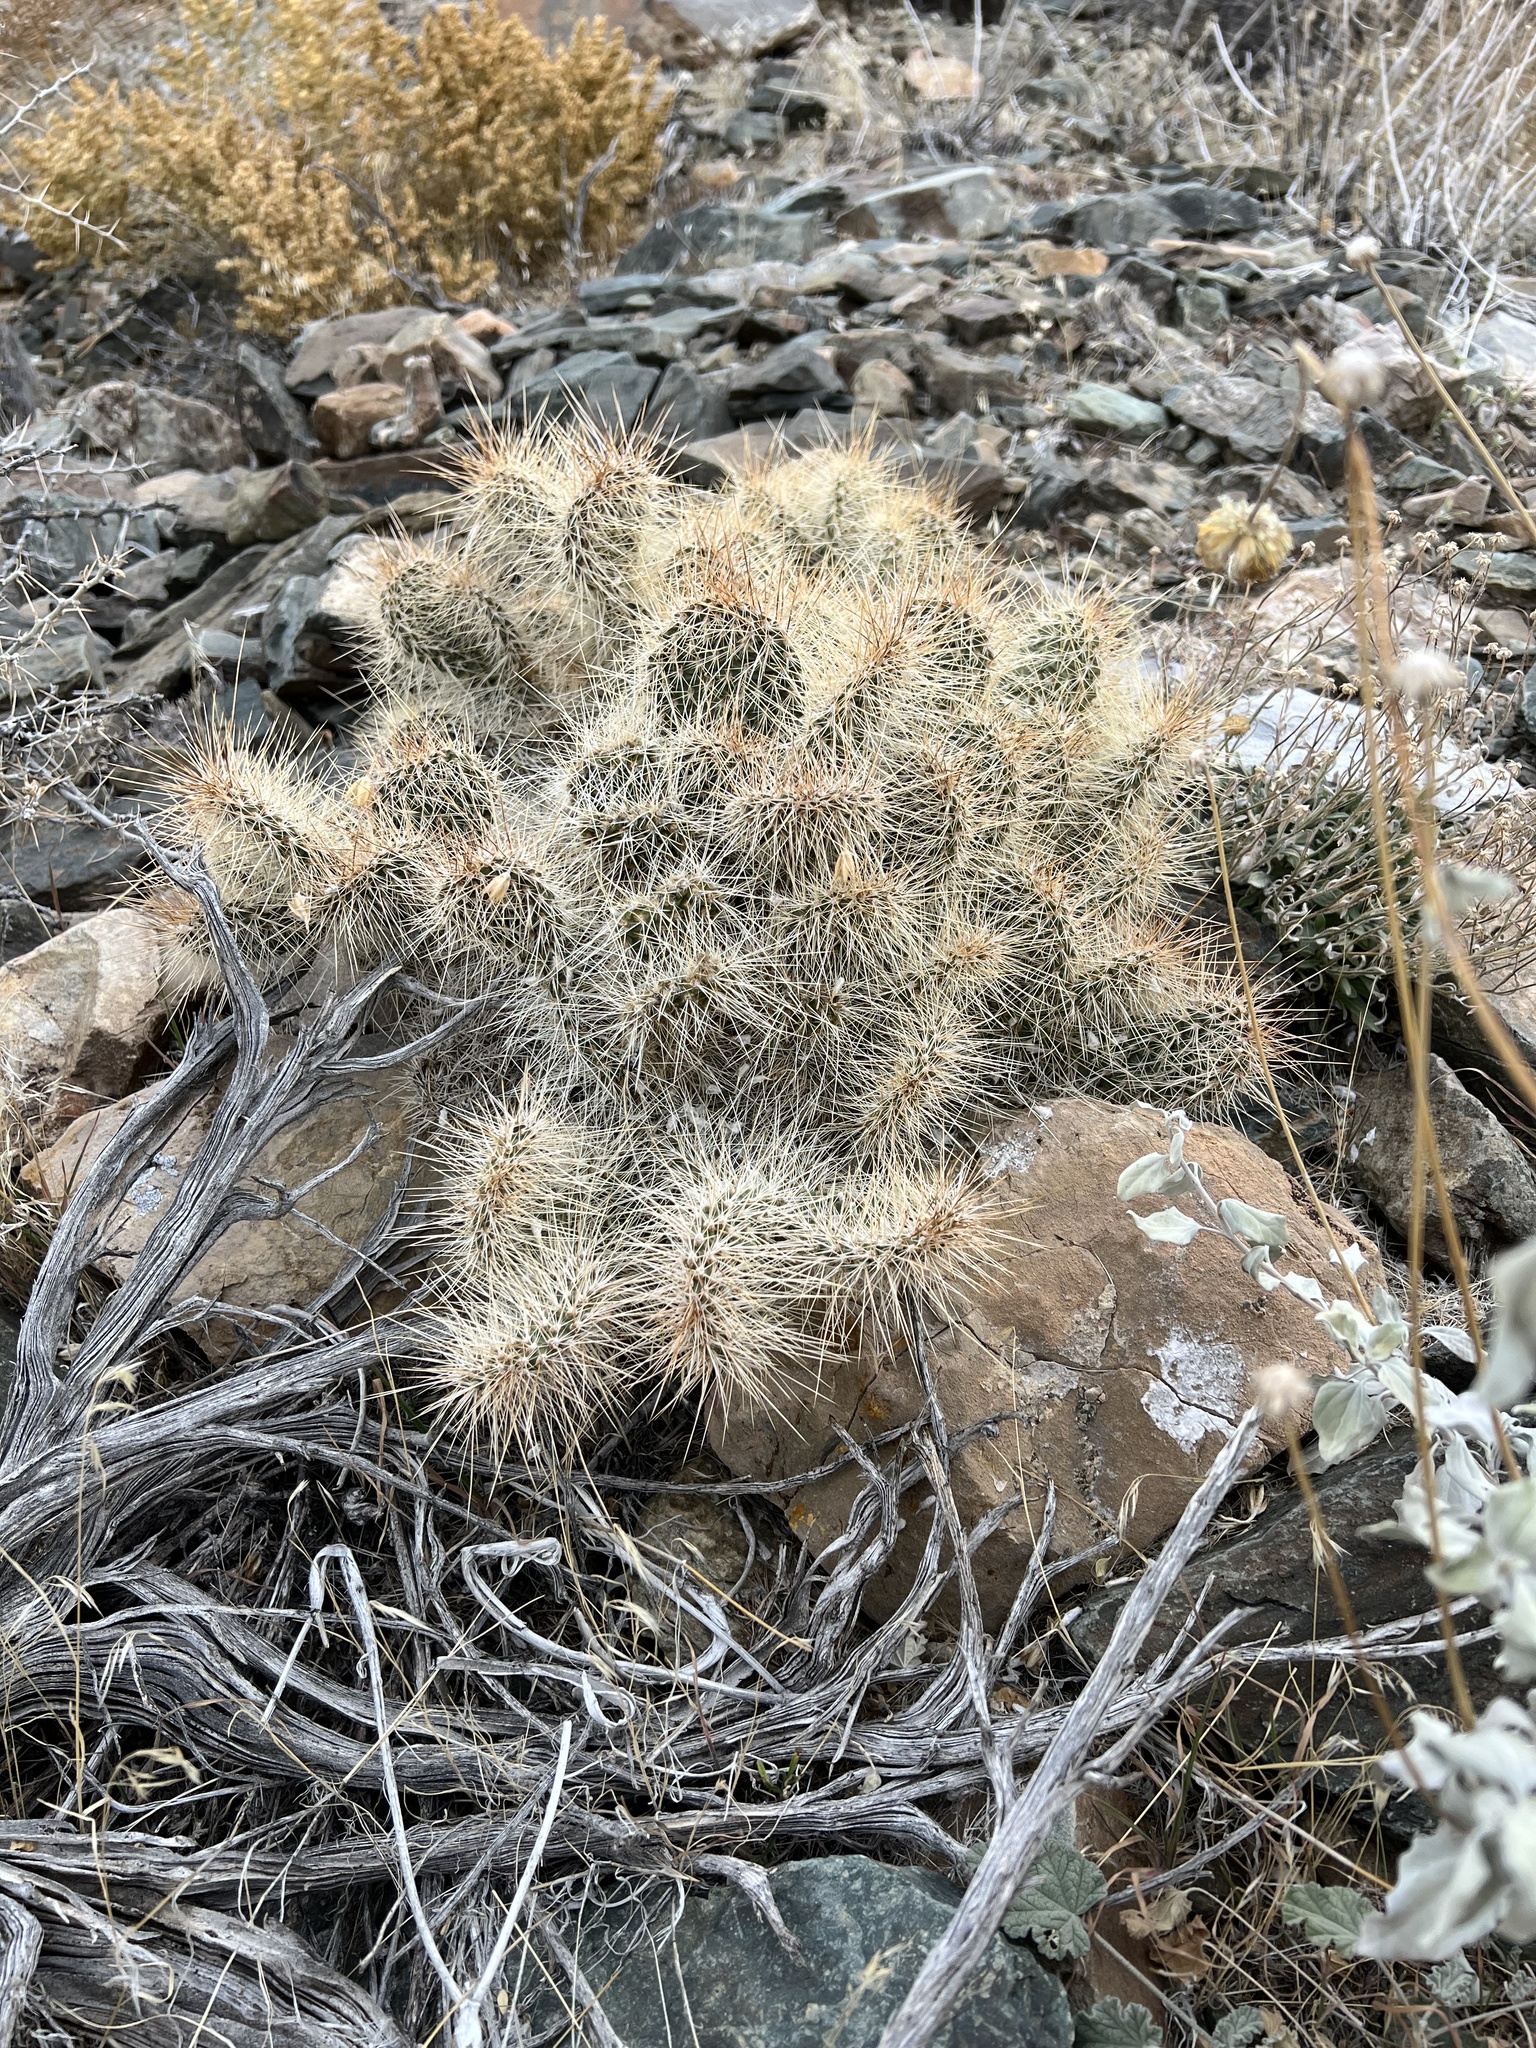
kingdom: Plantae
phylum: Tracheophyta
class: Magnoliopsida
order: Caryophyllales
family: Cactaceae
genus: Opuntia
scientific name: Opuntia polyacantha
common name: Plains prickly-pear
